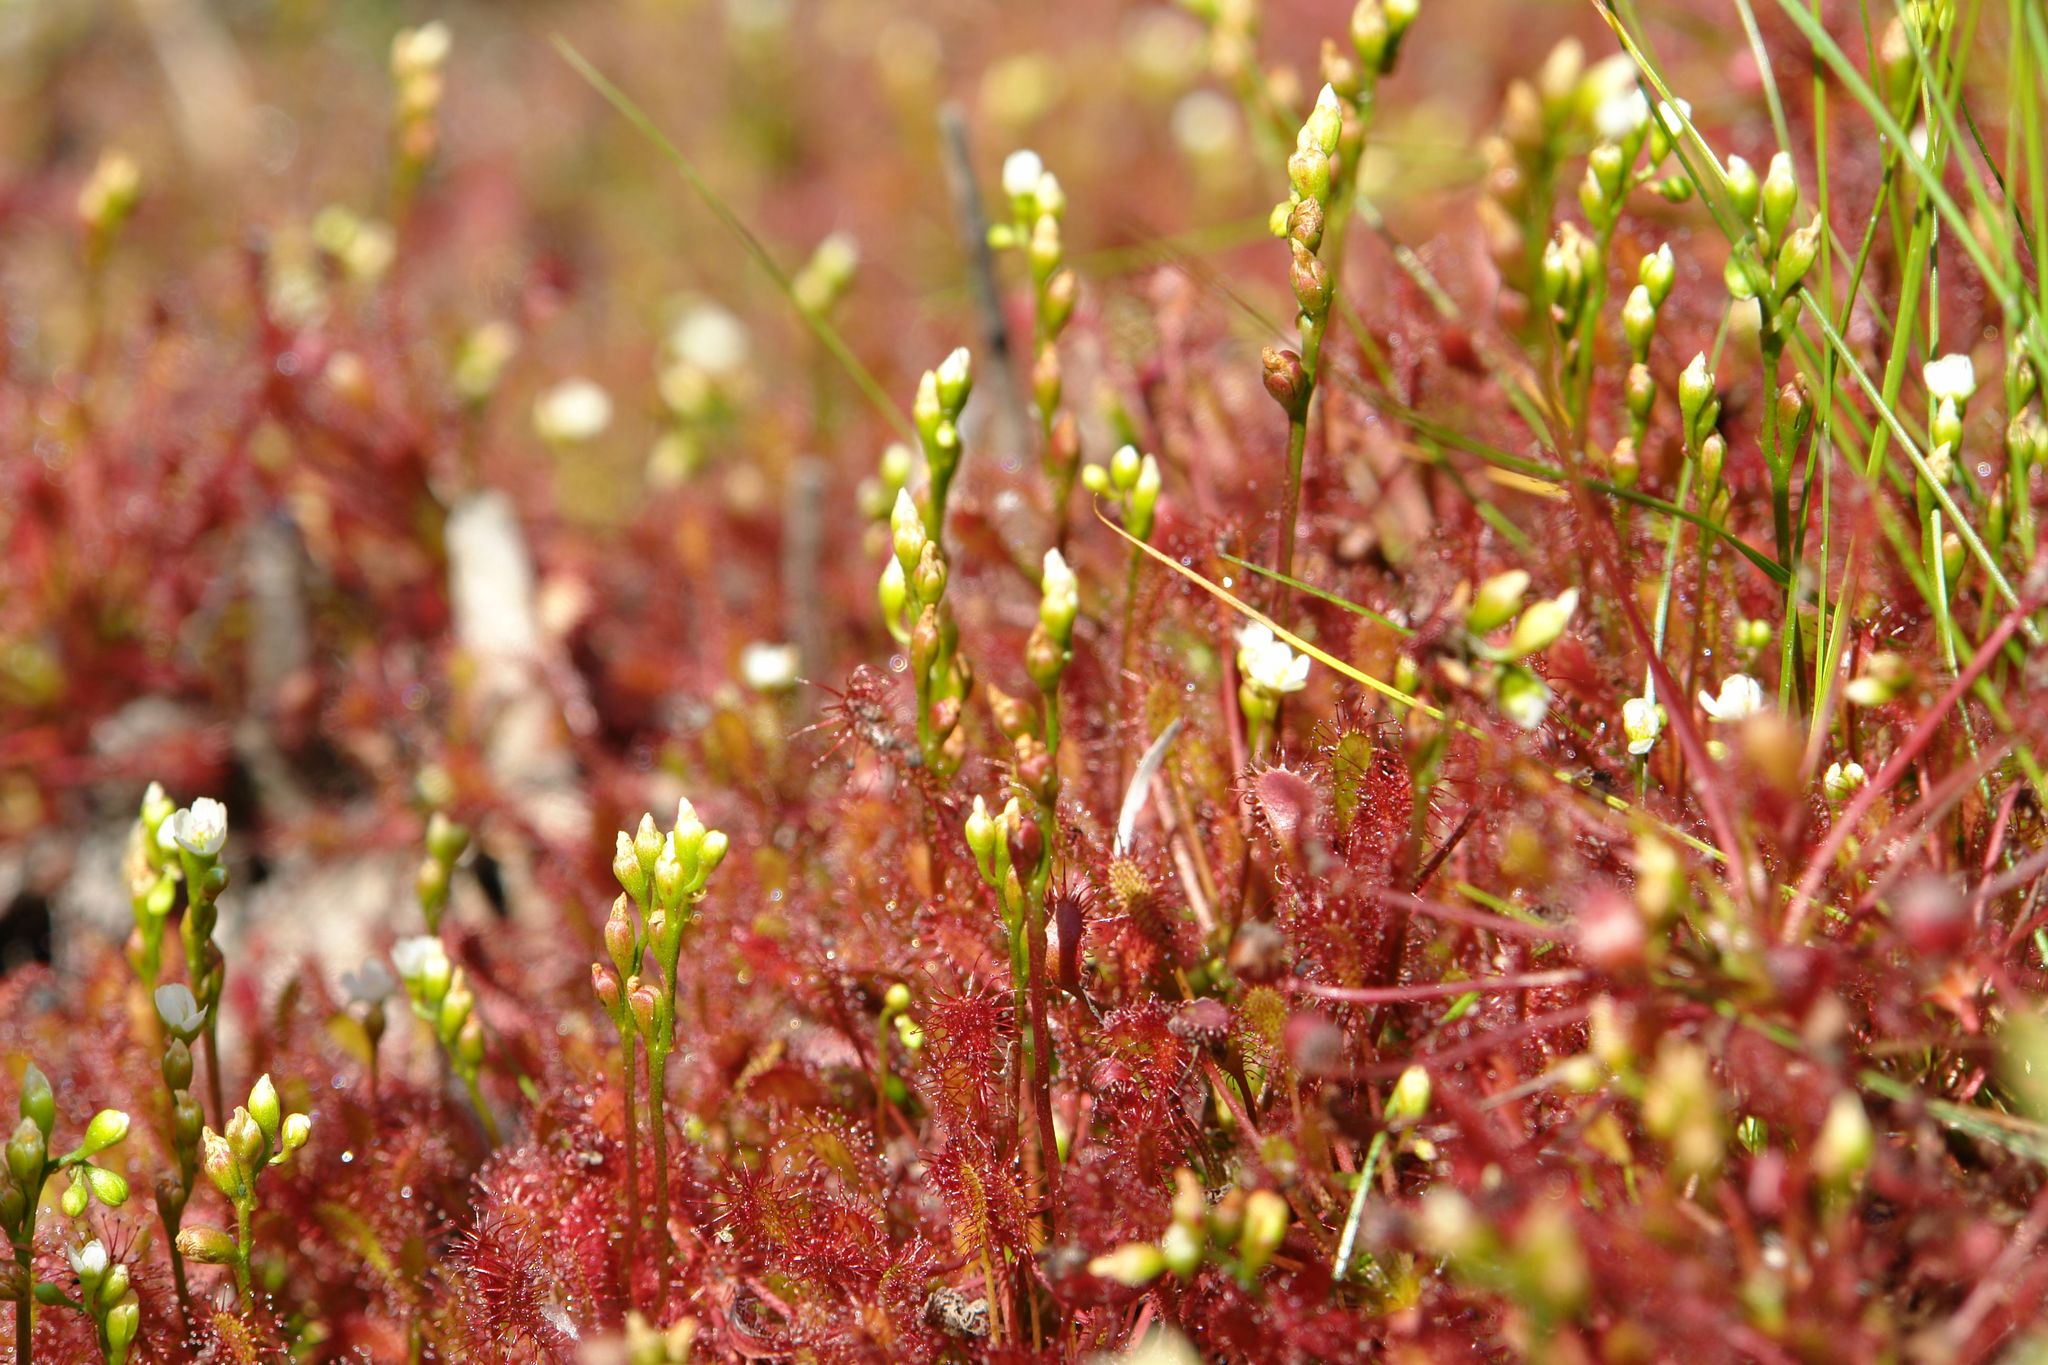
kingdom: Plantae
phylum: Tracheophyta
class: Magnoliopsida
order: Caryophyllales
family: Droseraceae
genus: Drosera
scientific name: Drosera intermedia
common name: Oblong-leaved sundew
